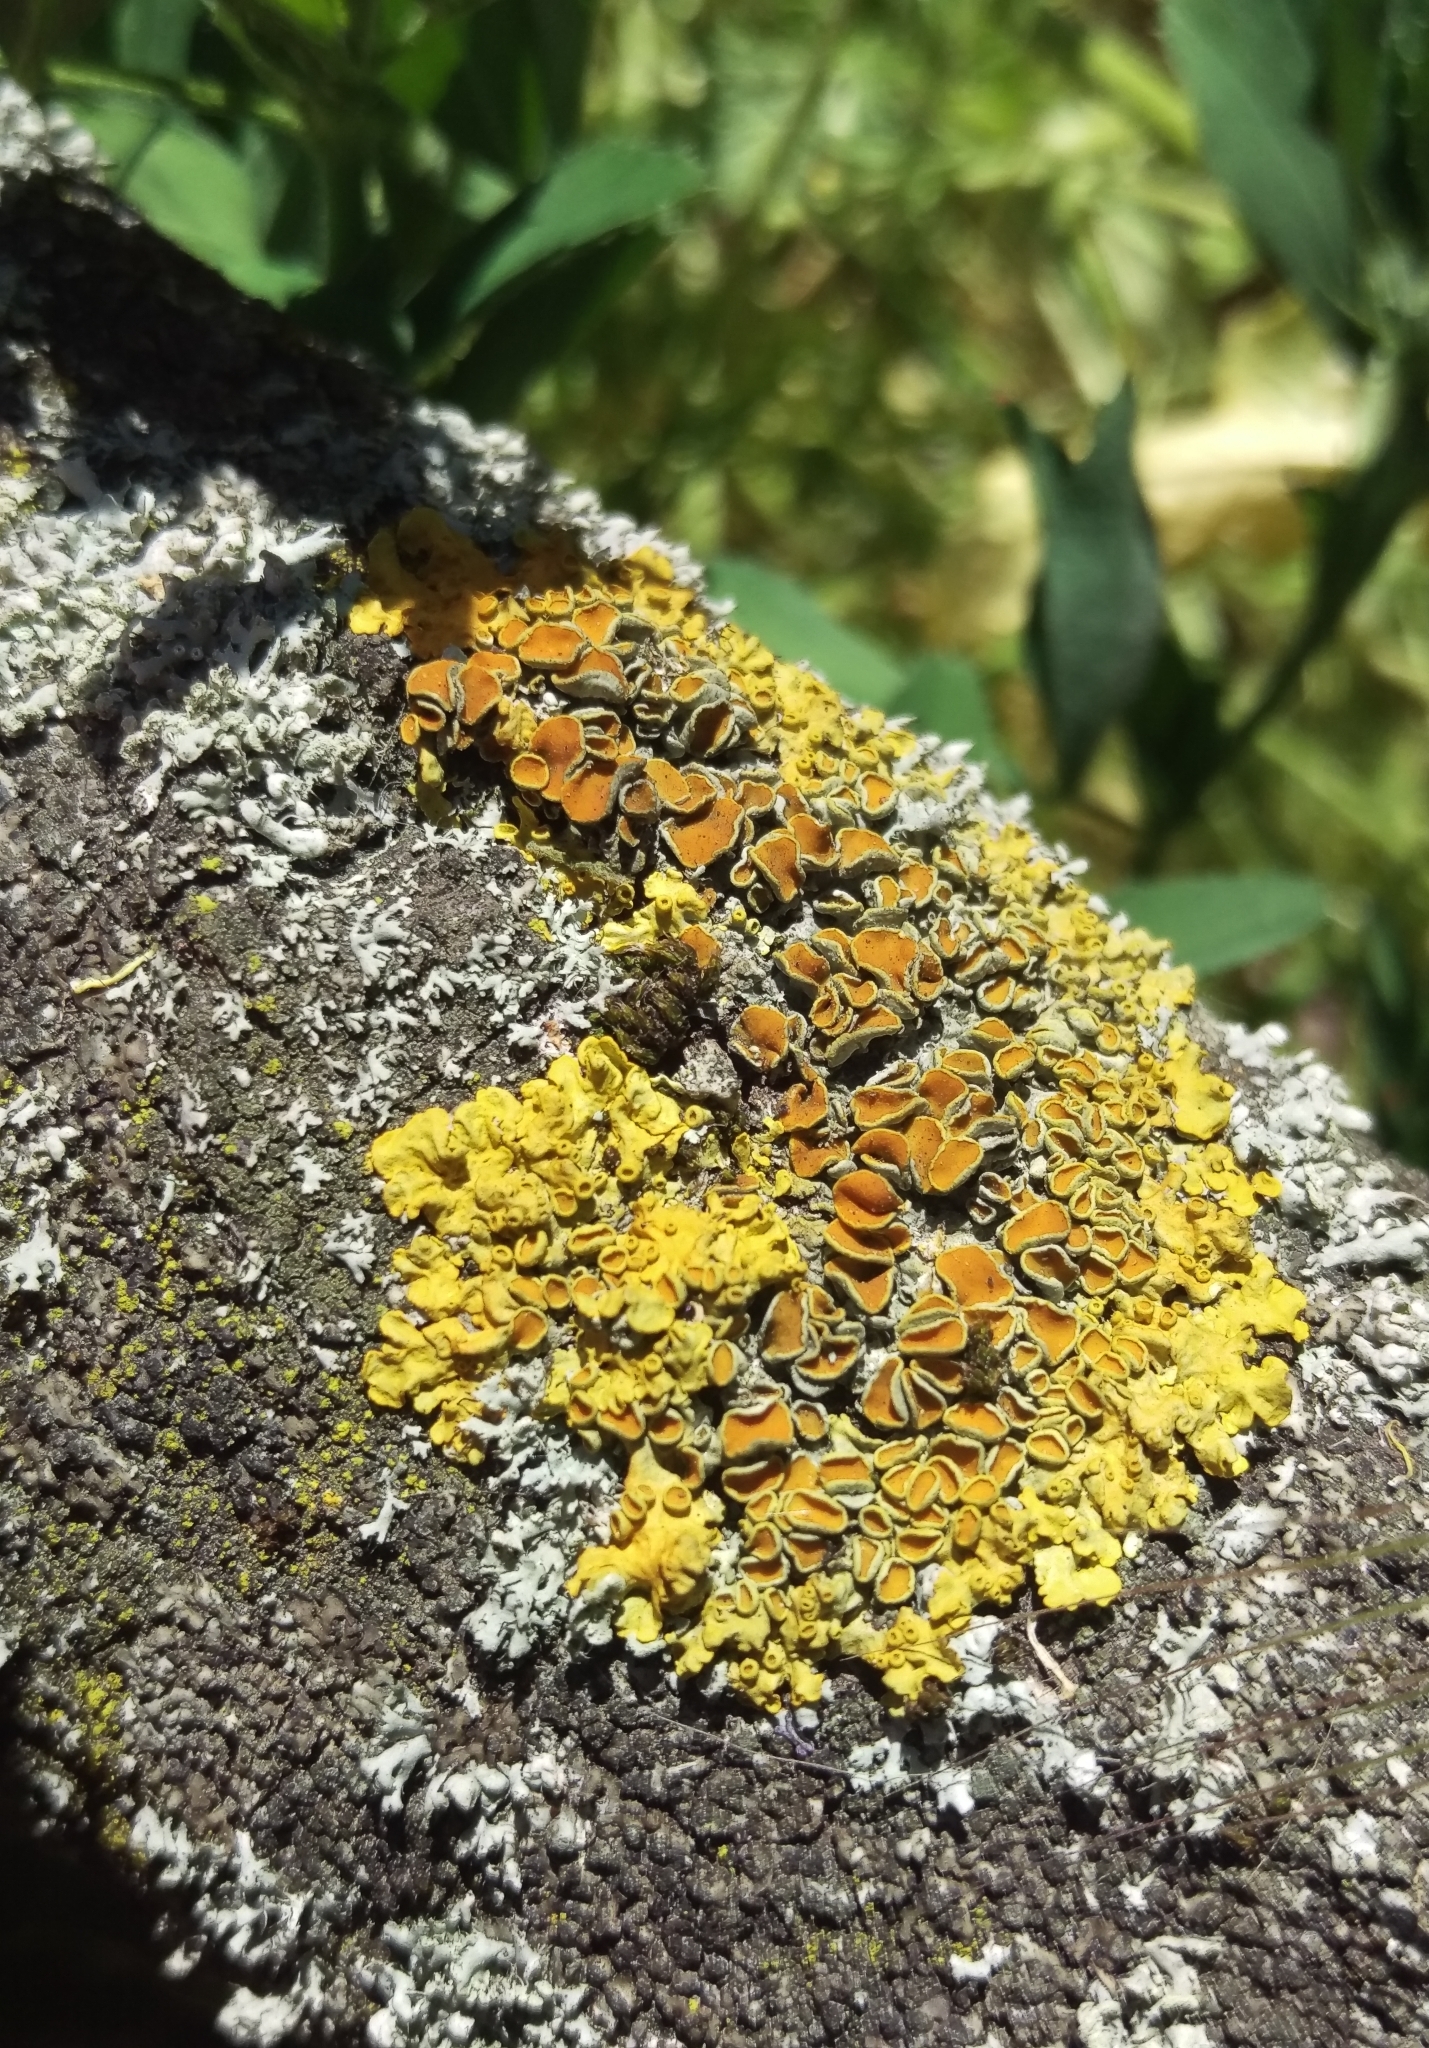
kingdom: Fungi
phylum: Ascomycota
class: Lecanoromycetes
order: Teloschistales
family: Teloschistaceae
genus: Xanthoria
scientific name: Xanthoria parietina
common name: Common orange lichen
